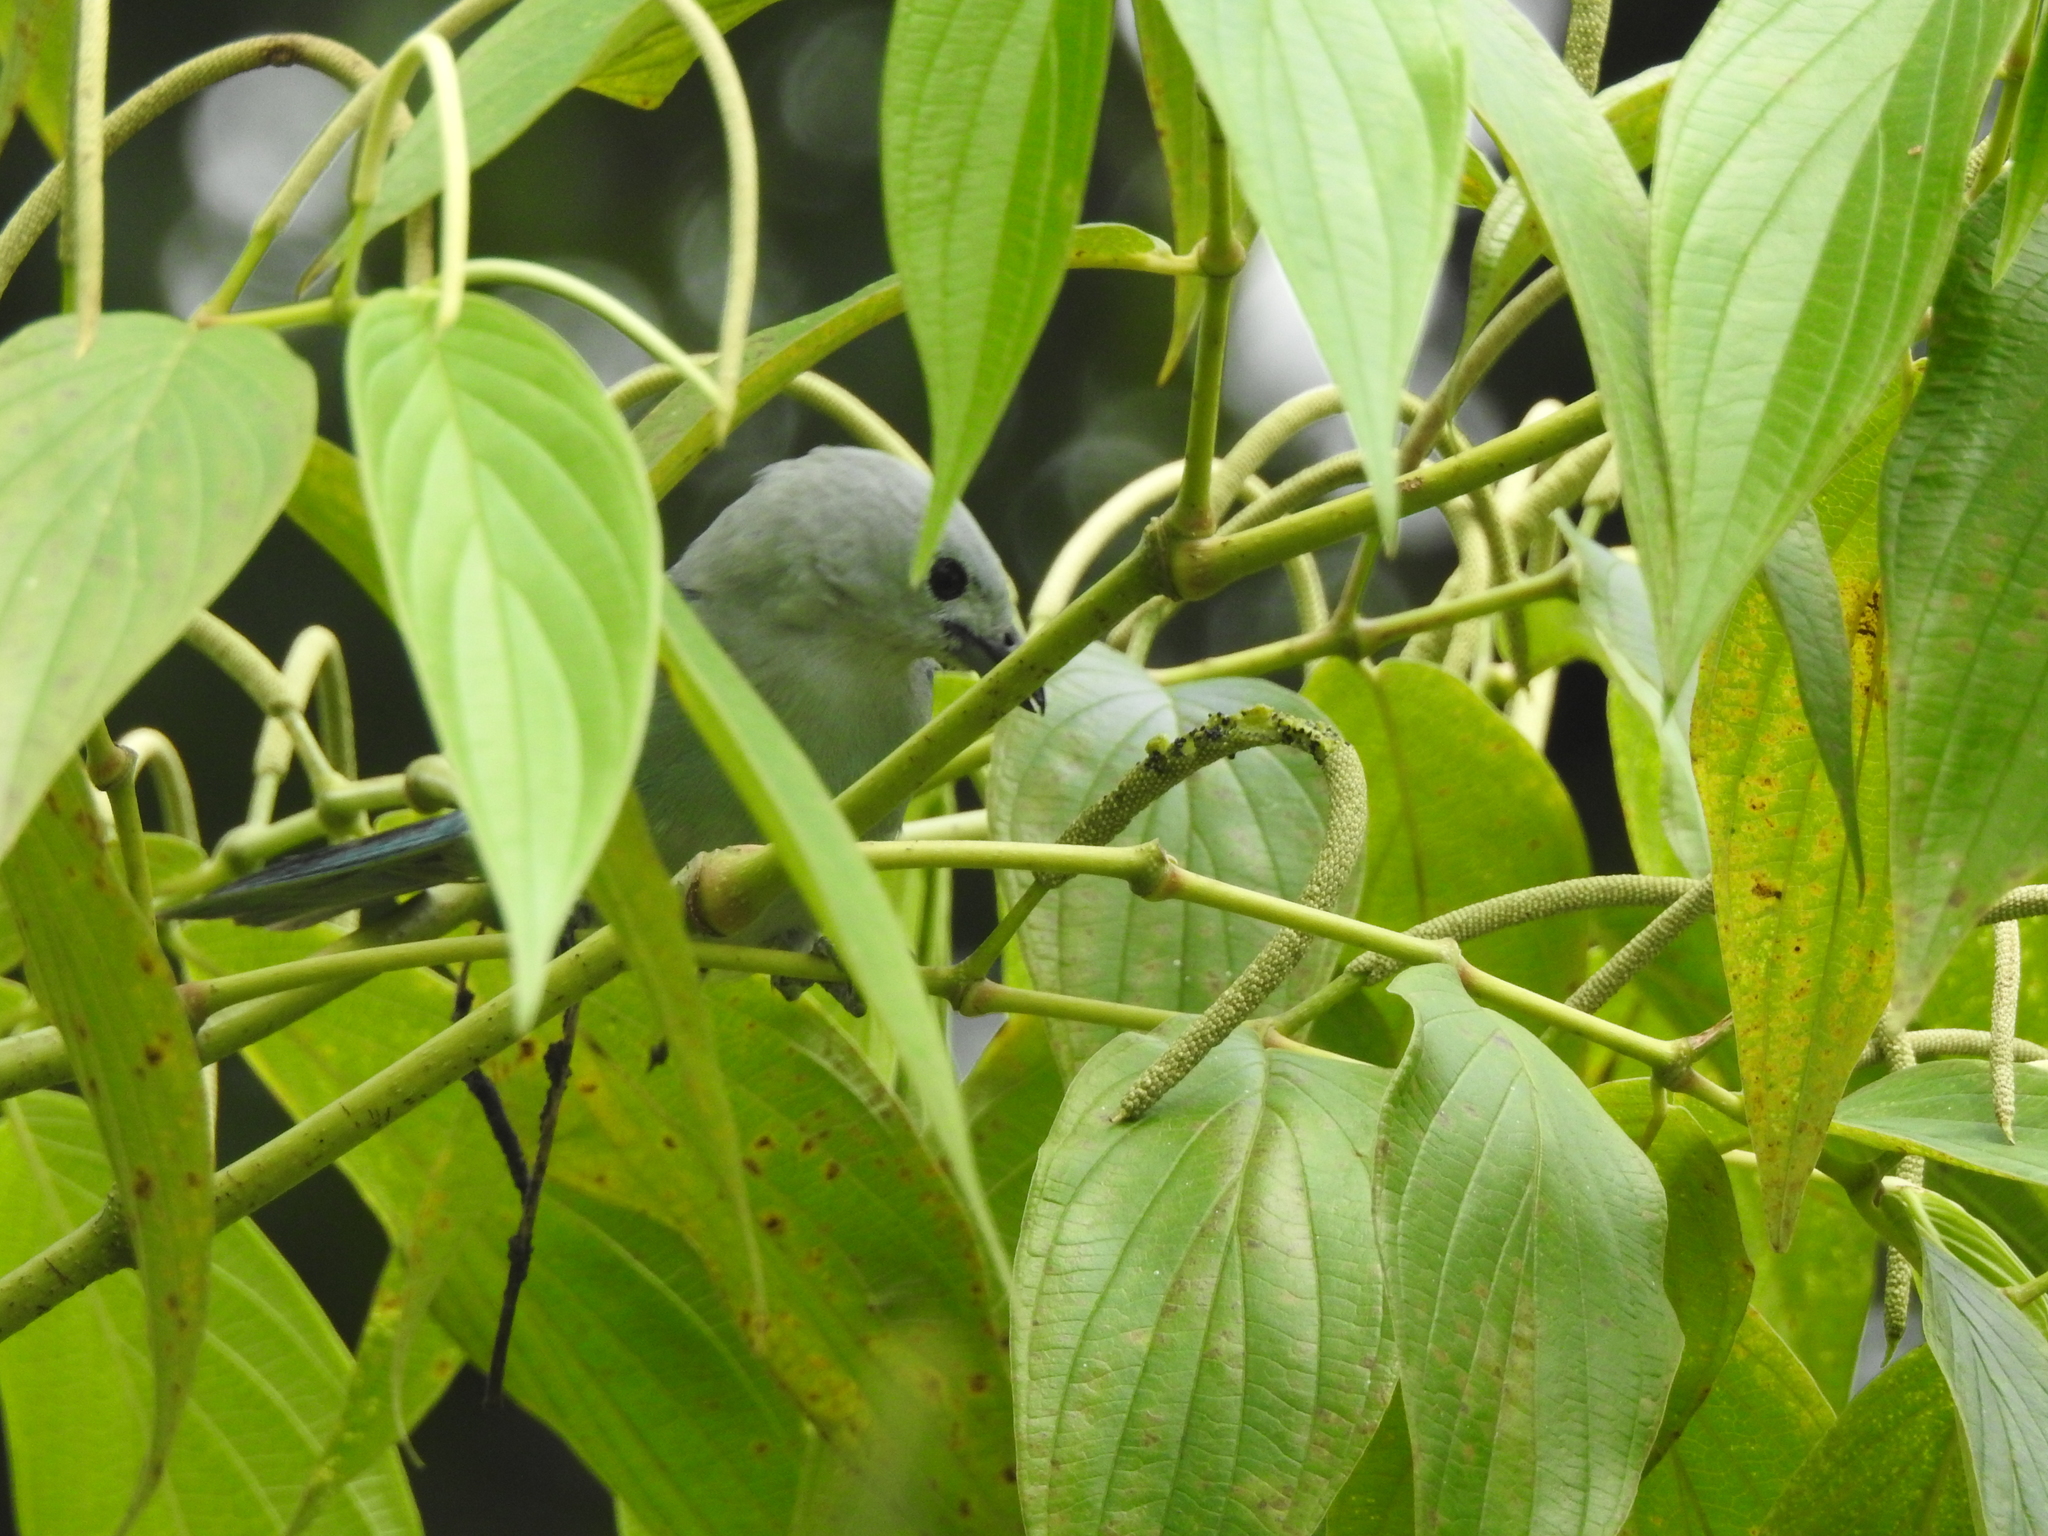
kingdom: Animalia
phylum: Chordata
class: Aves
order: Passeriformes
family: Thraupidae
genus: Thraupis
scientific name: Thraupis episcopus
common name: Blue-grey tanager
